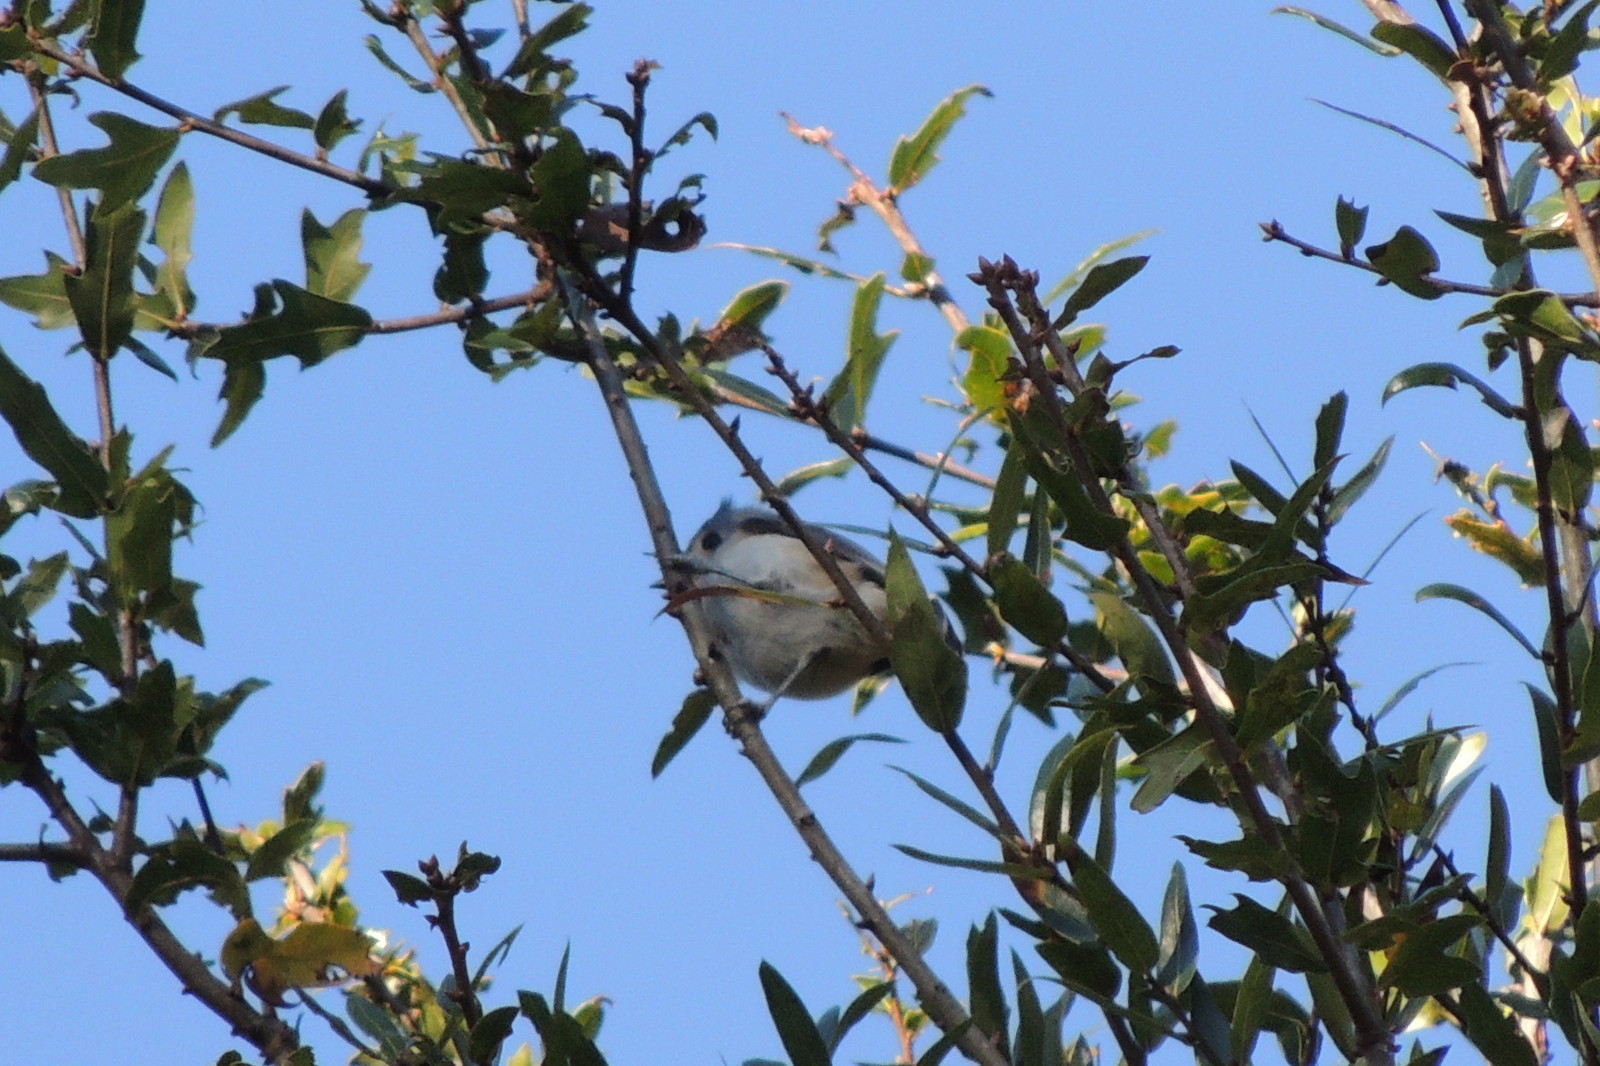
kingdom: Animalia
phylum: Chordata
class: Aves
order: Passeriformes
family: Paridae
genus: Baeolophus
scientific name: Baeolophus bicolor
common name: Tufted titmouse
